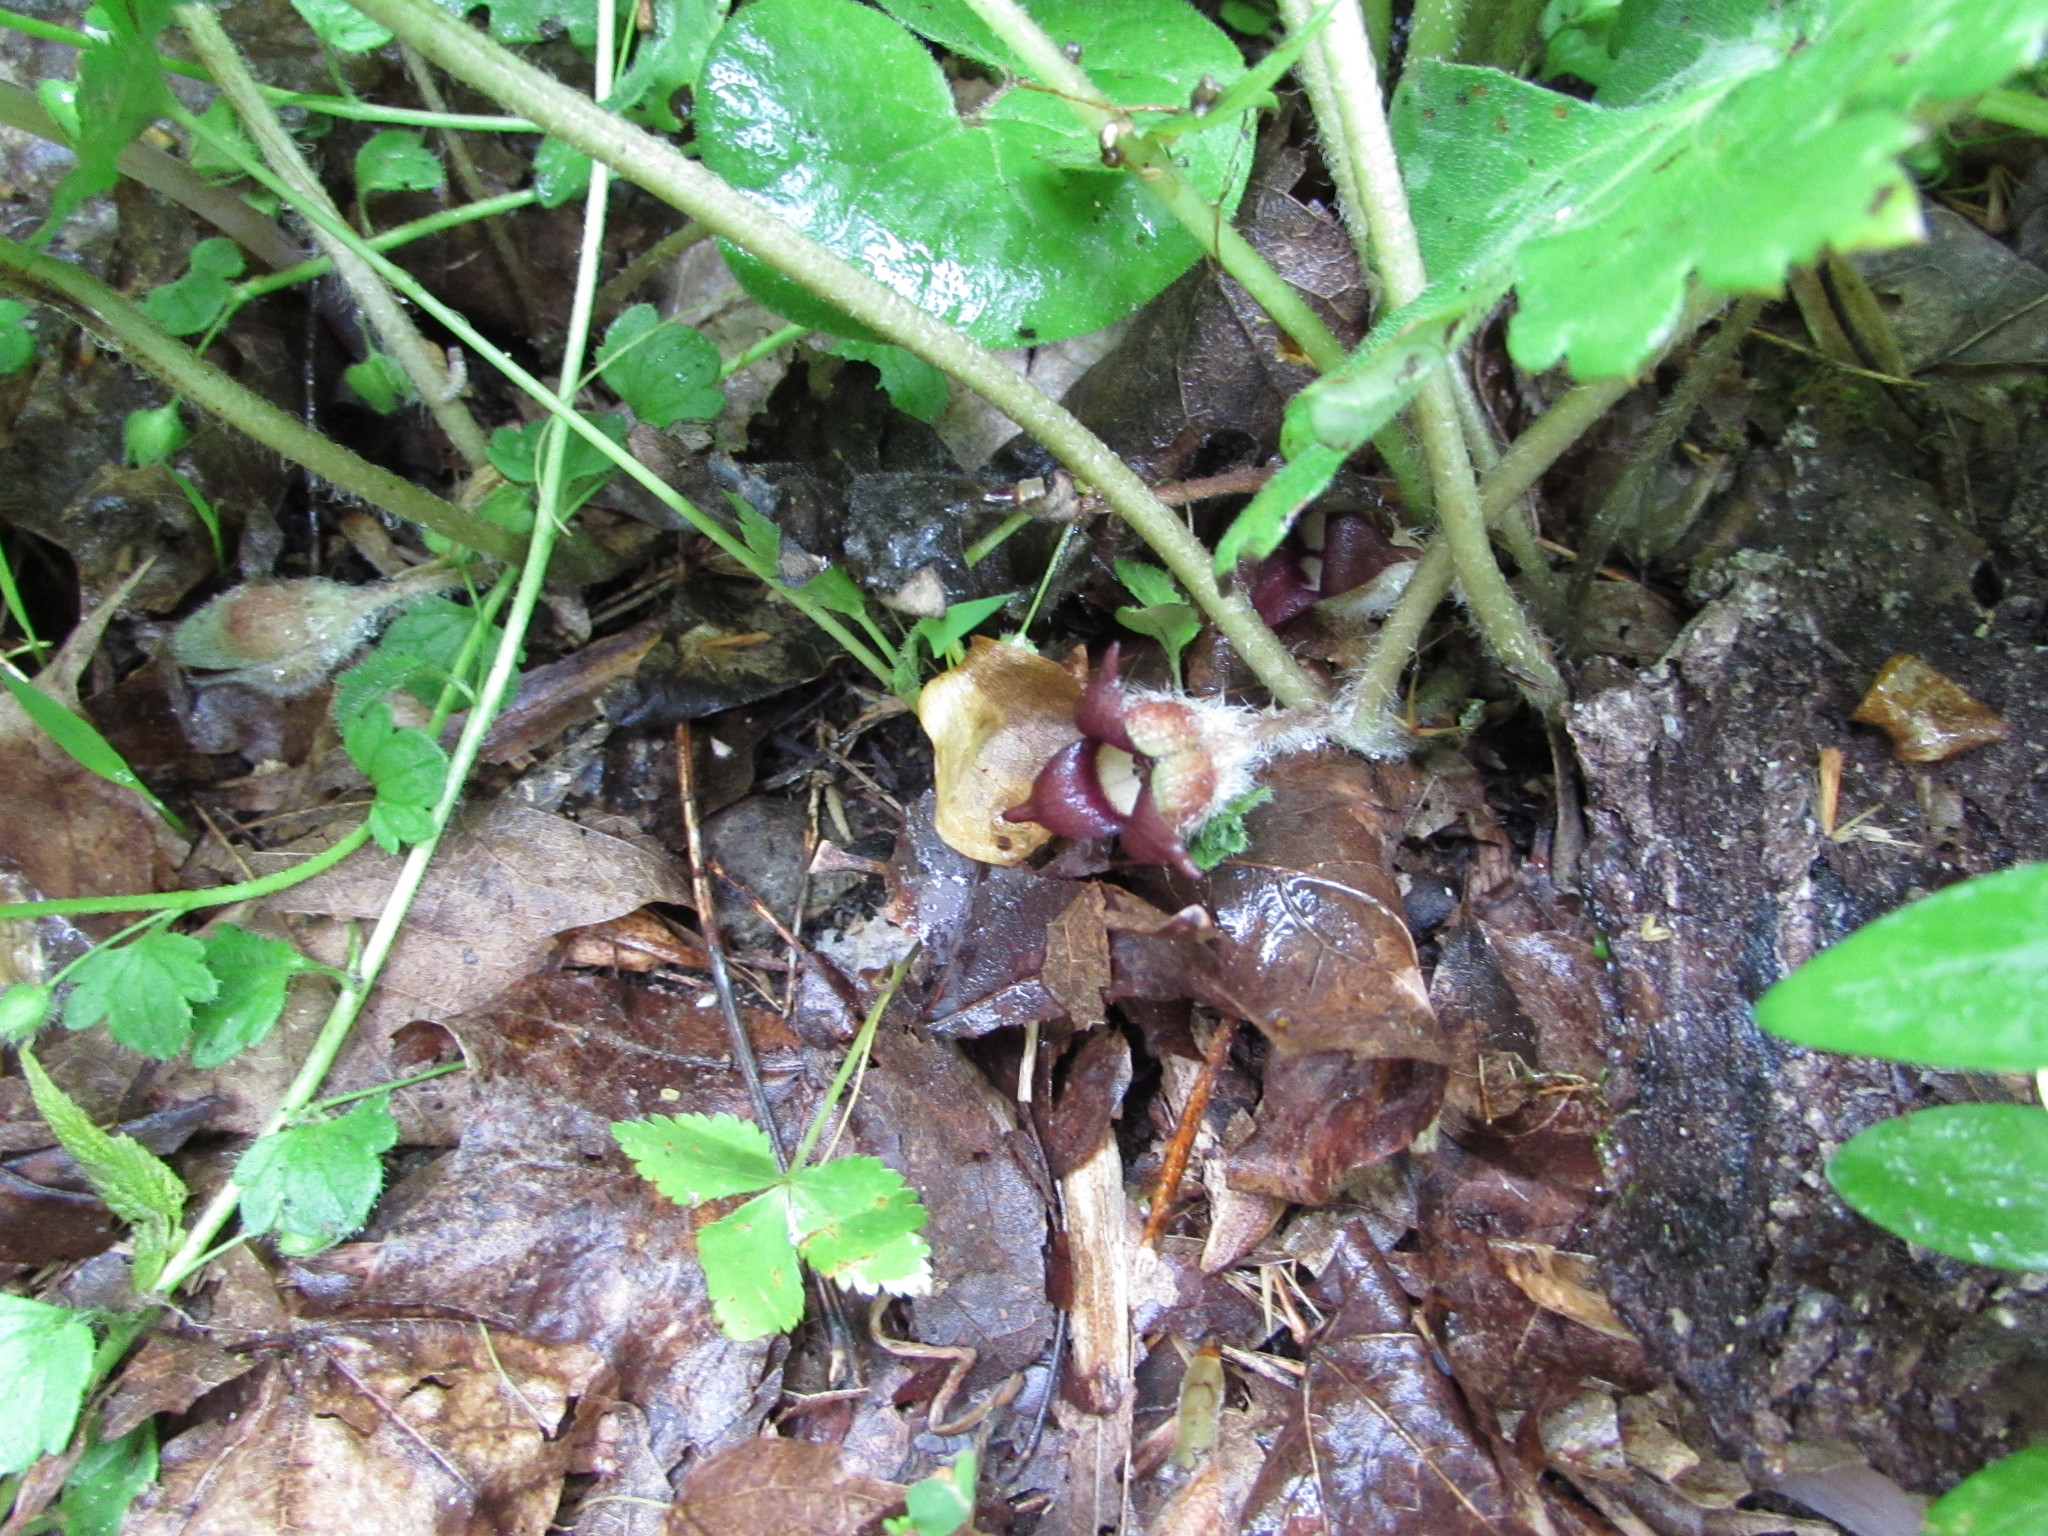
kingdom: Plantae
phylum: Tracheophyta
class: Magnoliopsida
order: Piperales
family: Aristolochiaceae
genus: Asarum
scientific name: Asarum canadense
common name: Wild ginger
